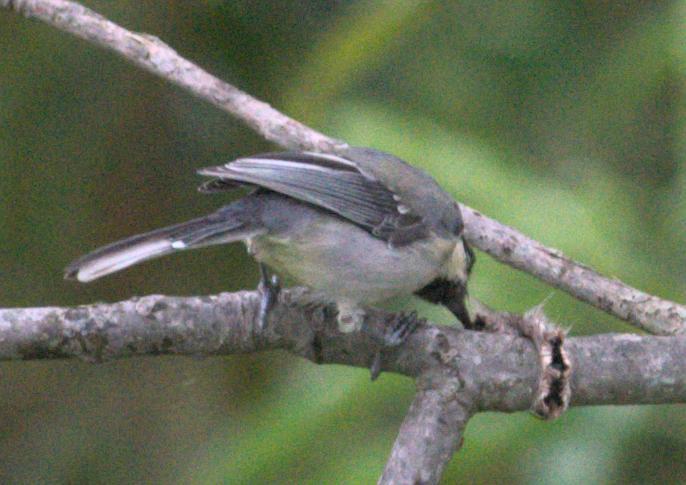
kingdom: Animalia
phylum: Chordata
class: Aves
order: Passeriformes
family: Paridae
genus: Parus
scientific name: Parus cinereus
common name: Cinereous tit
